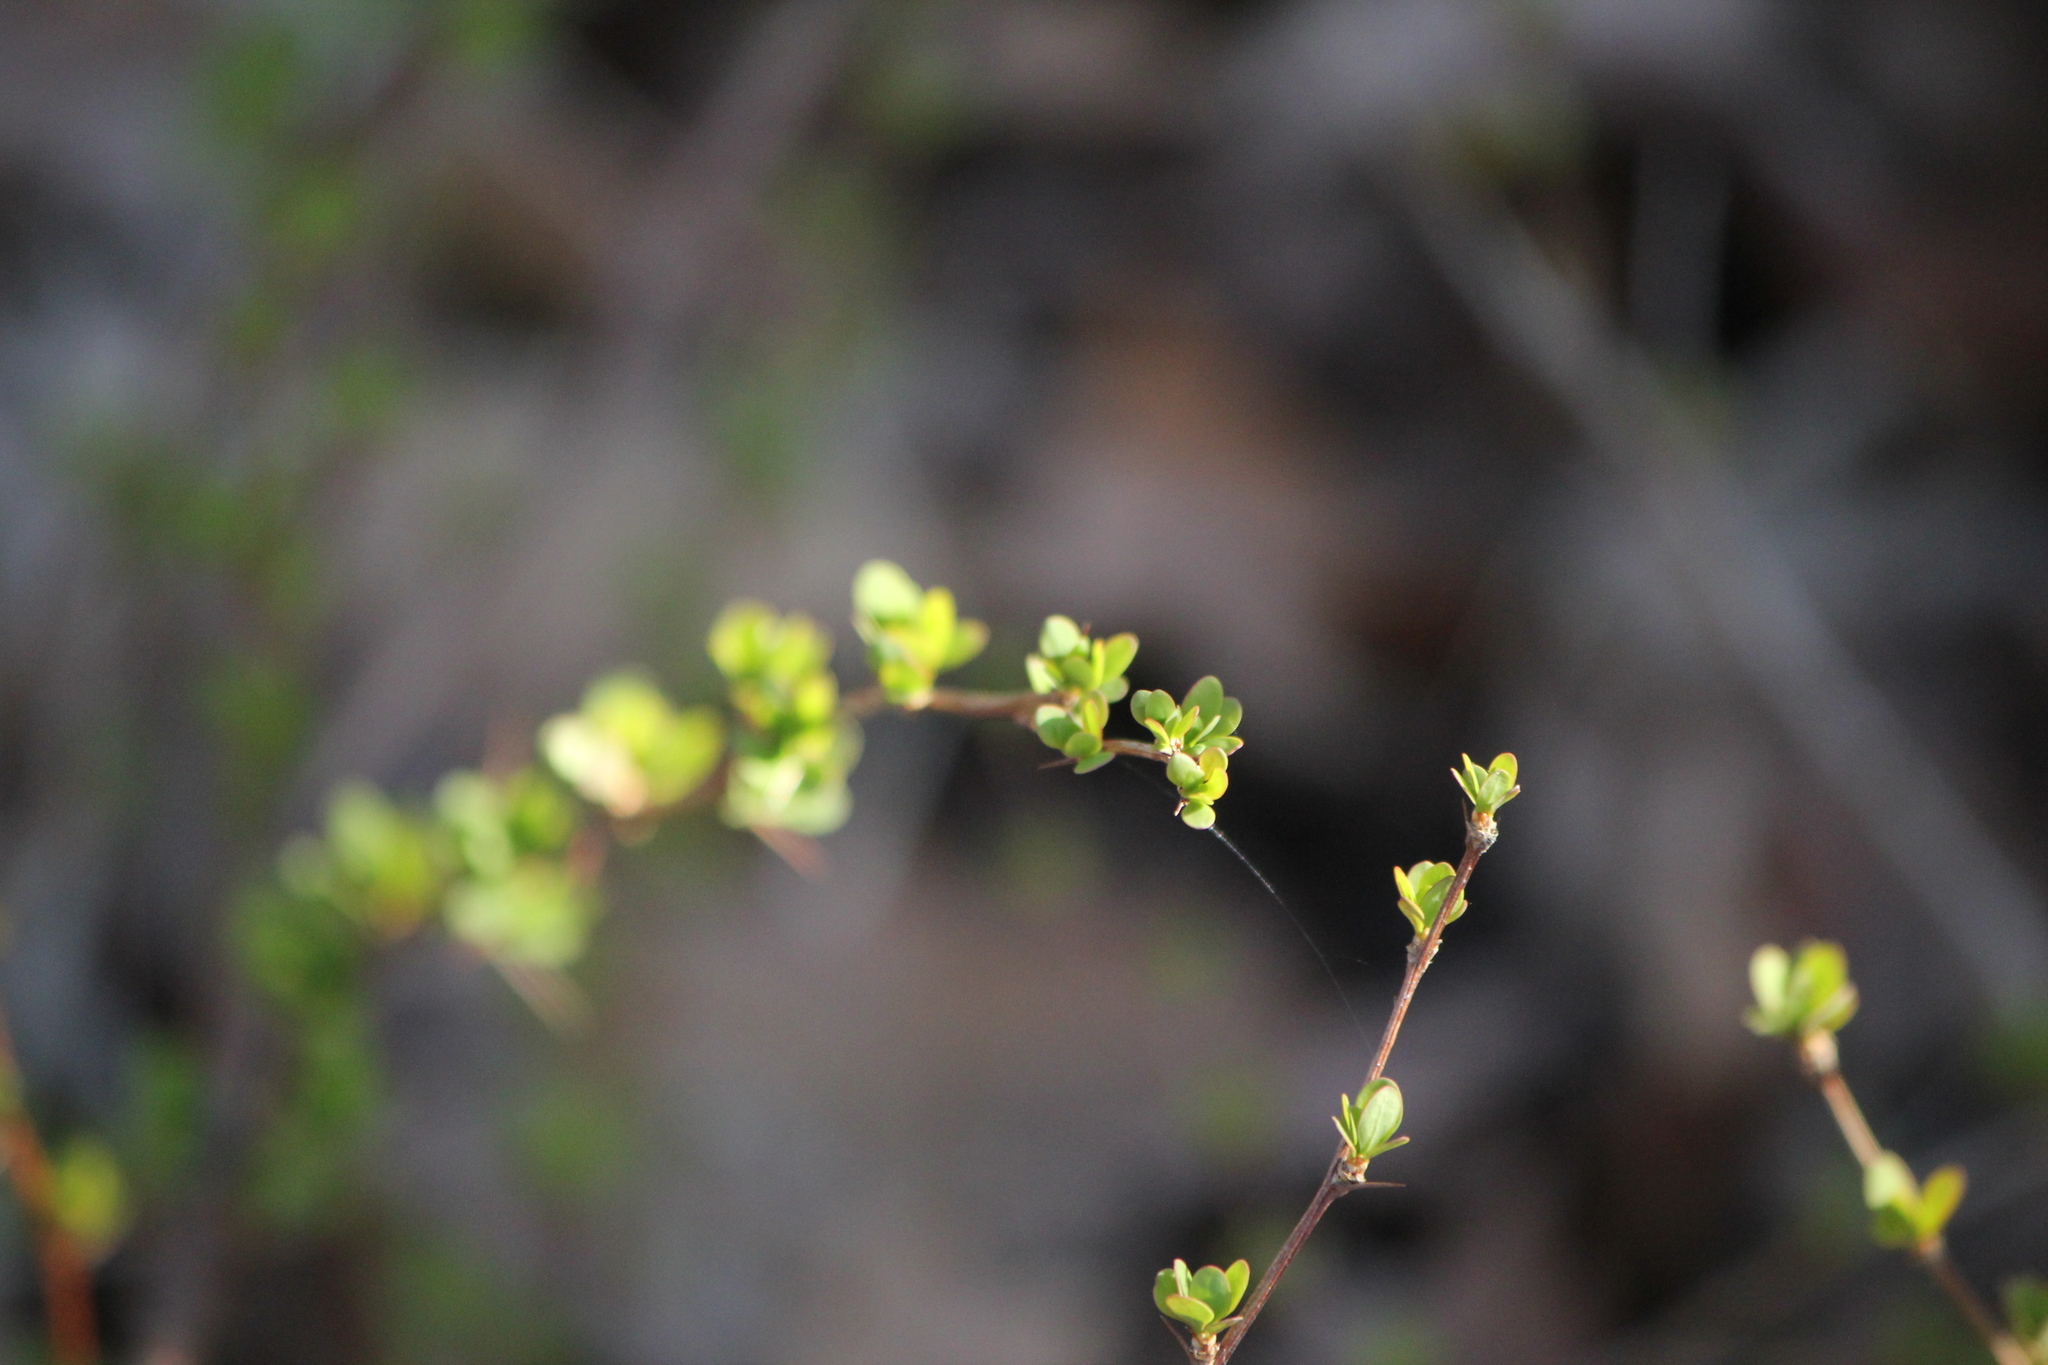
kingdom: Plantae
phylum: Tracheophyta
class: Magnoliopsida
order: Ranunculales
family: Berberidaceae
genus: Berberis
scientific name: Berberis thunbergii
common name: Japanese barberry
